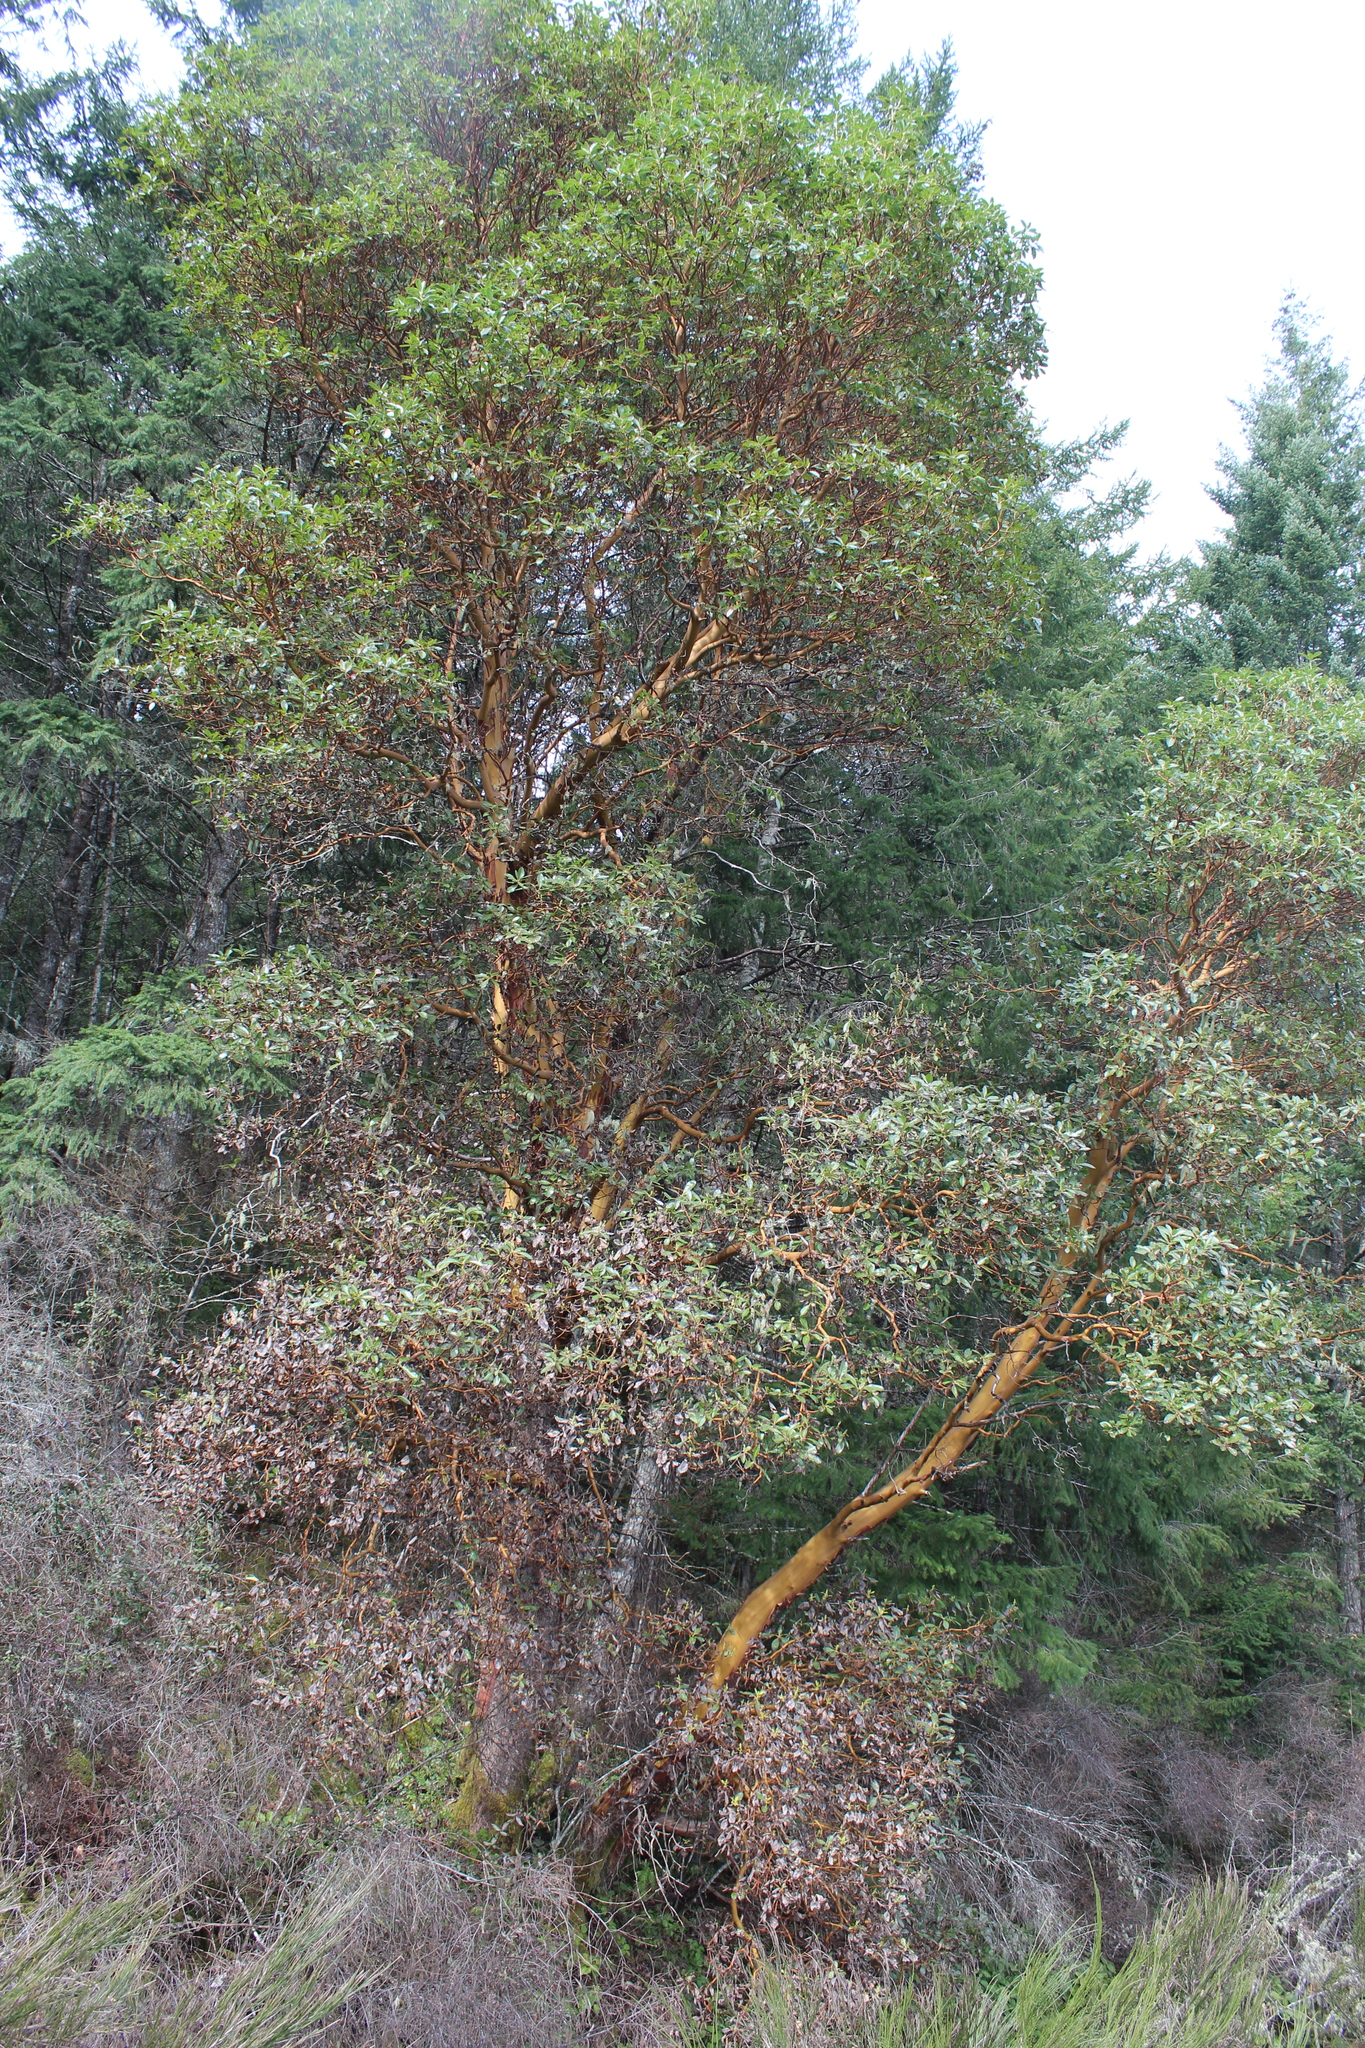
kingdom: Plantae
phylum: Tracheophyta
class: Magnoliopsida
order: Ericales
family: Ericaceae
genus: Arbutus
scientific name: Arbutus menziesii
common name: Pacific madrone
